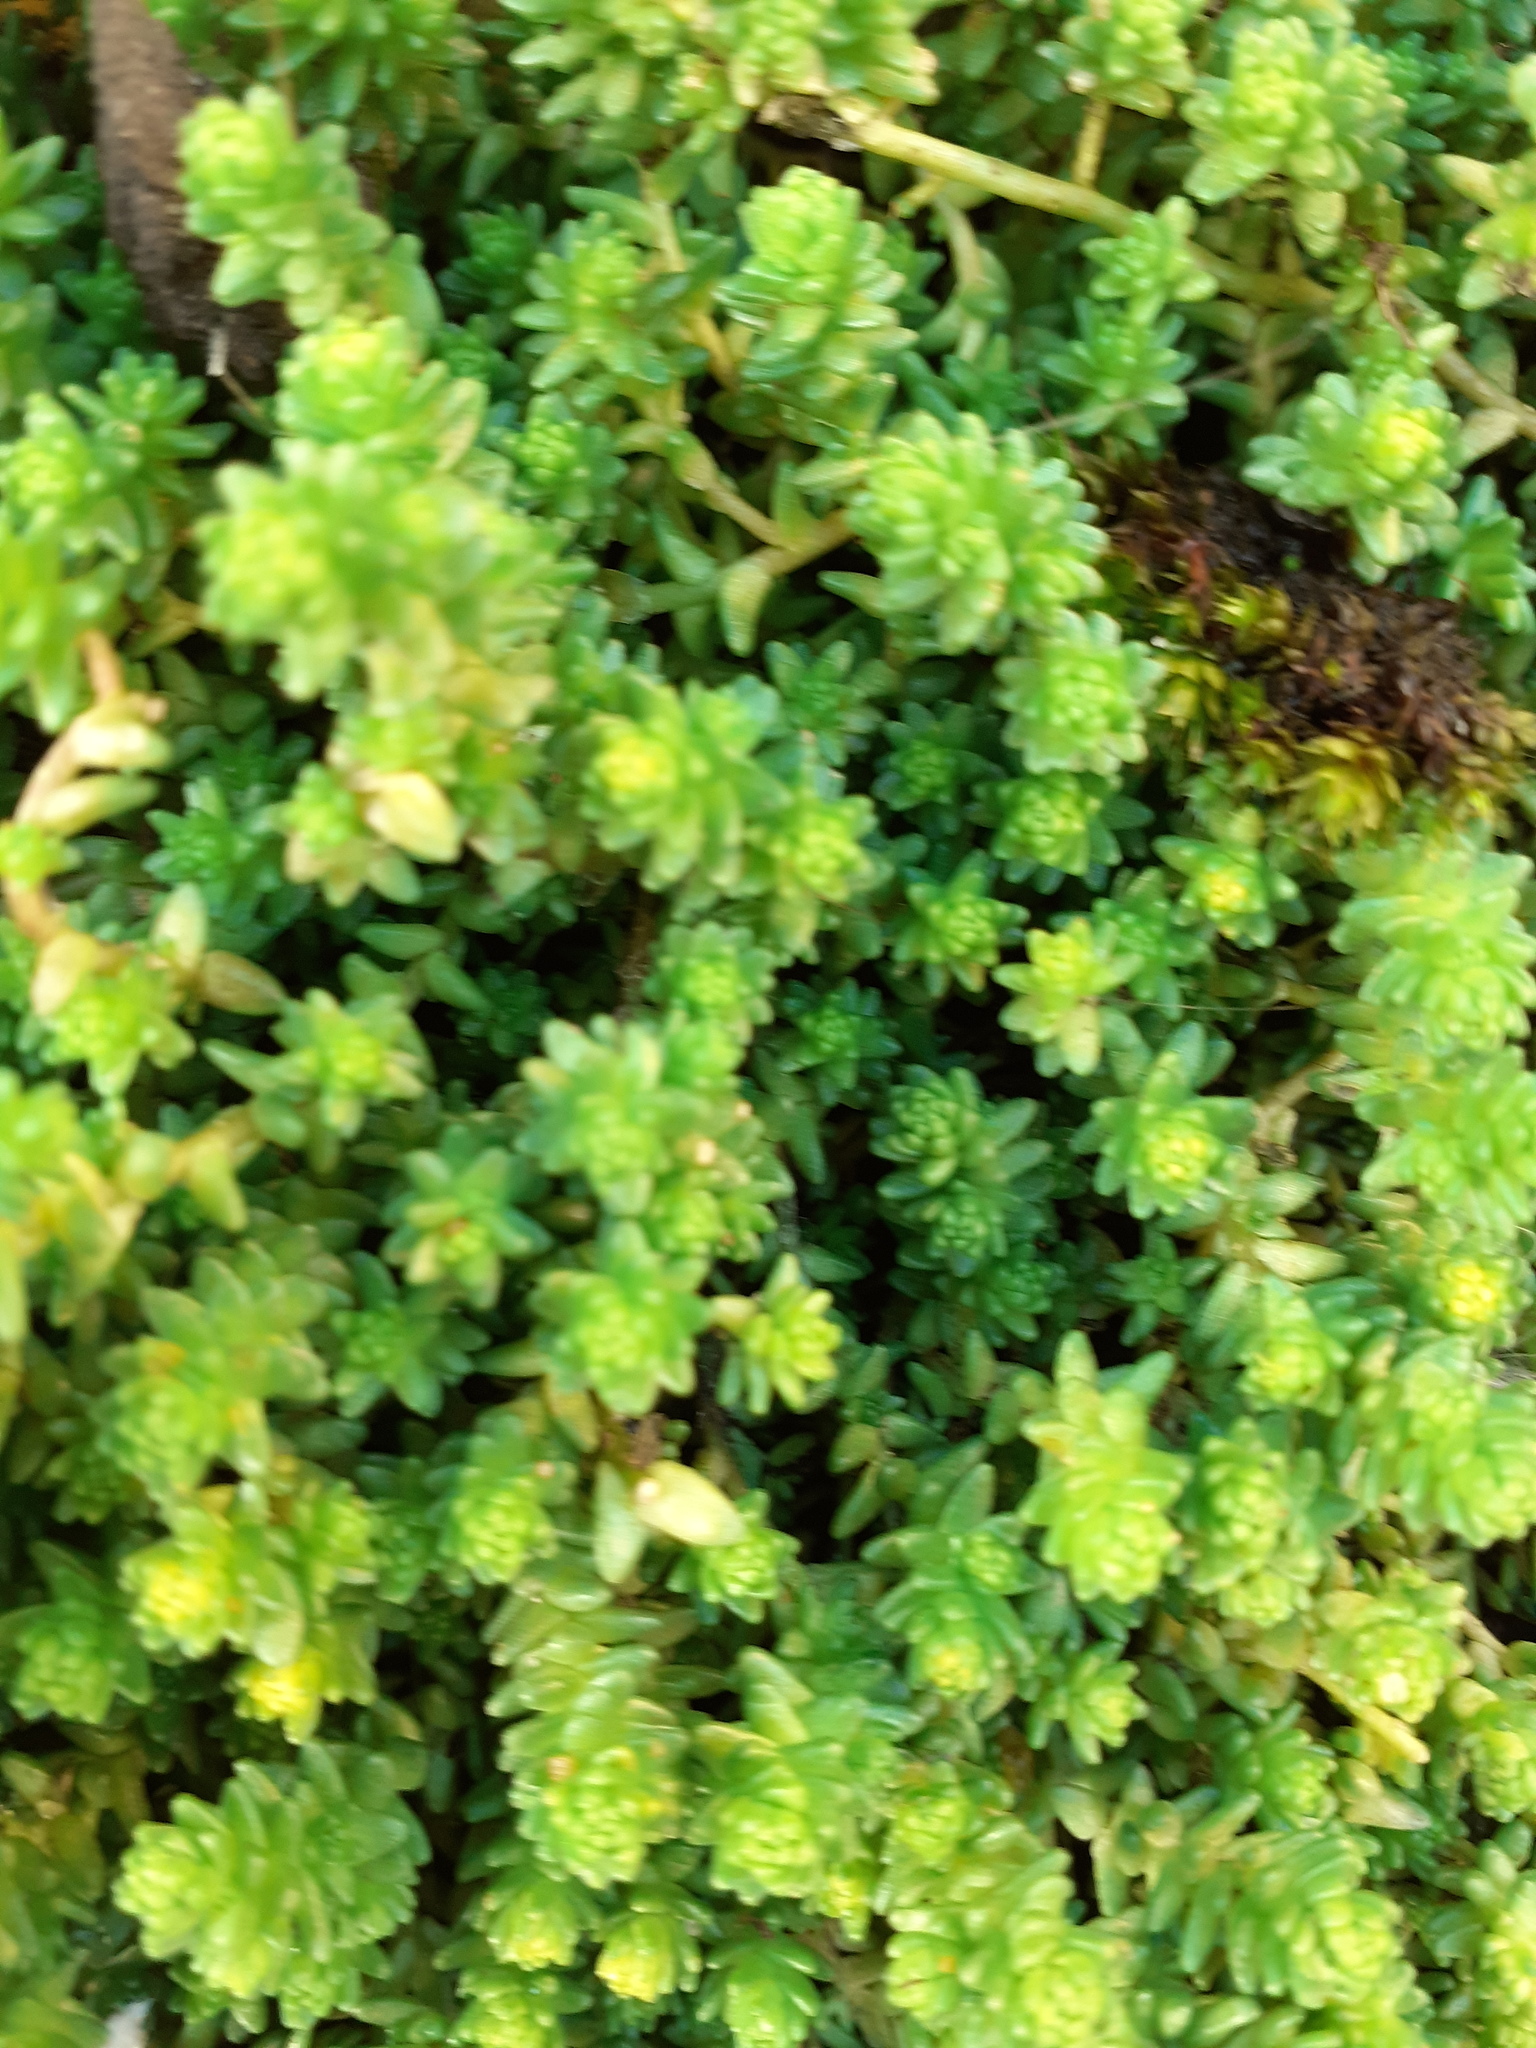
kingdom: Plantae
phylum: Tracheophyta
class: Magnoliopsida
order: Saxifragales
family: Crassulaceae
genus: Sedum
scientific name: Sedum acre
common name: Biting stonecrop
